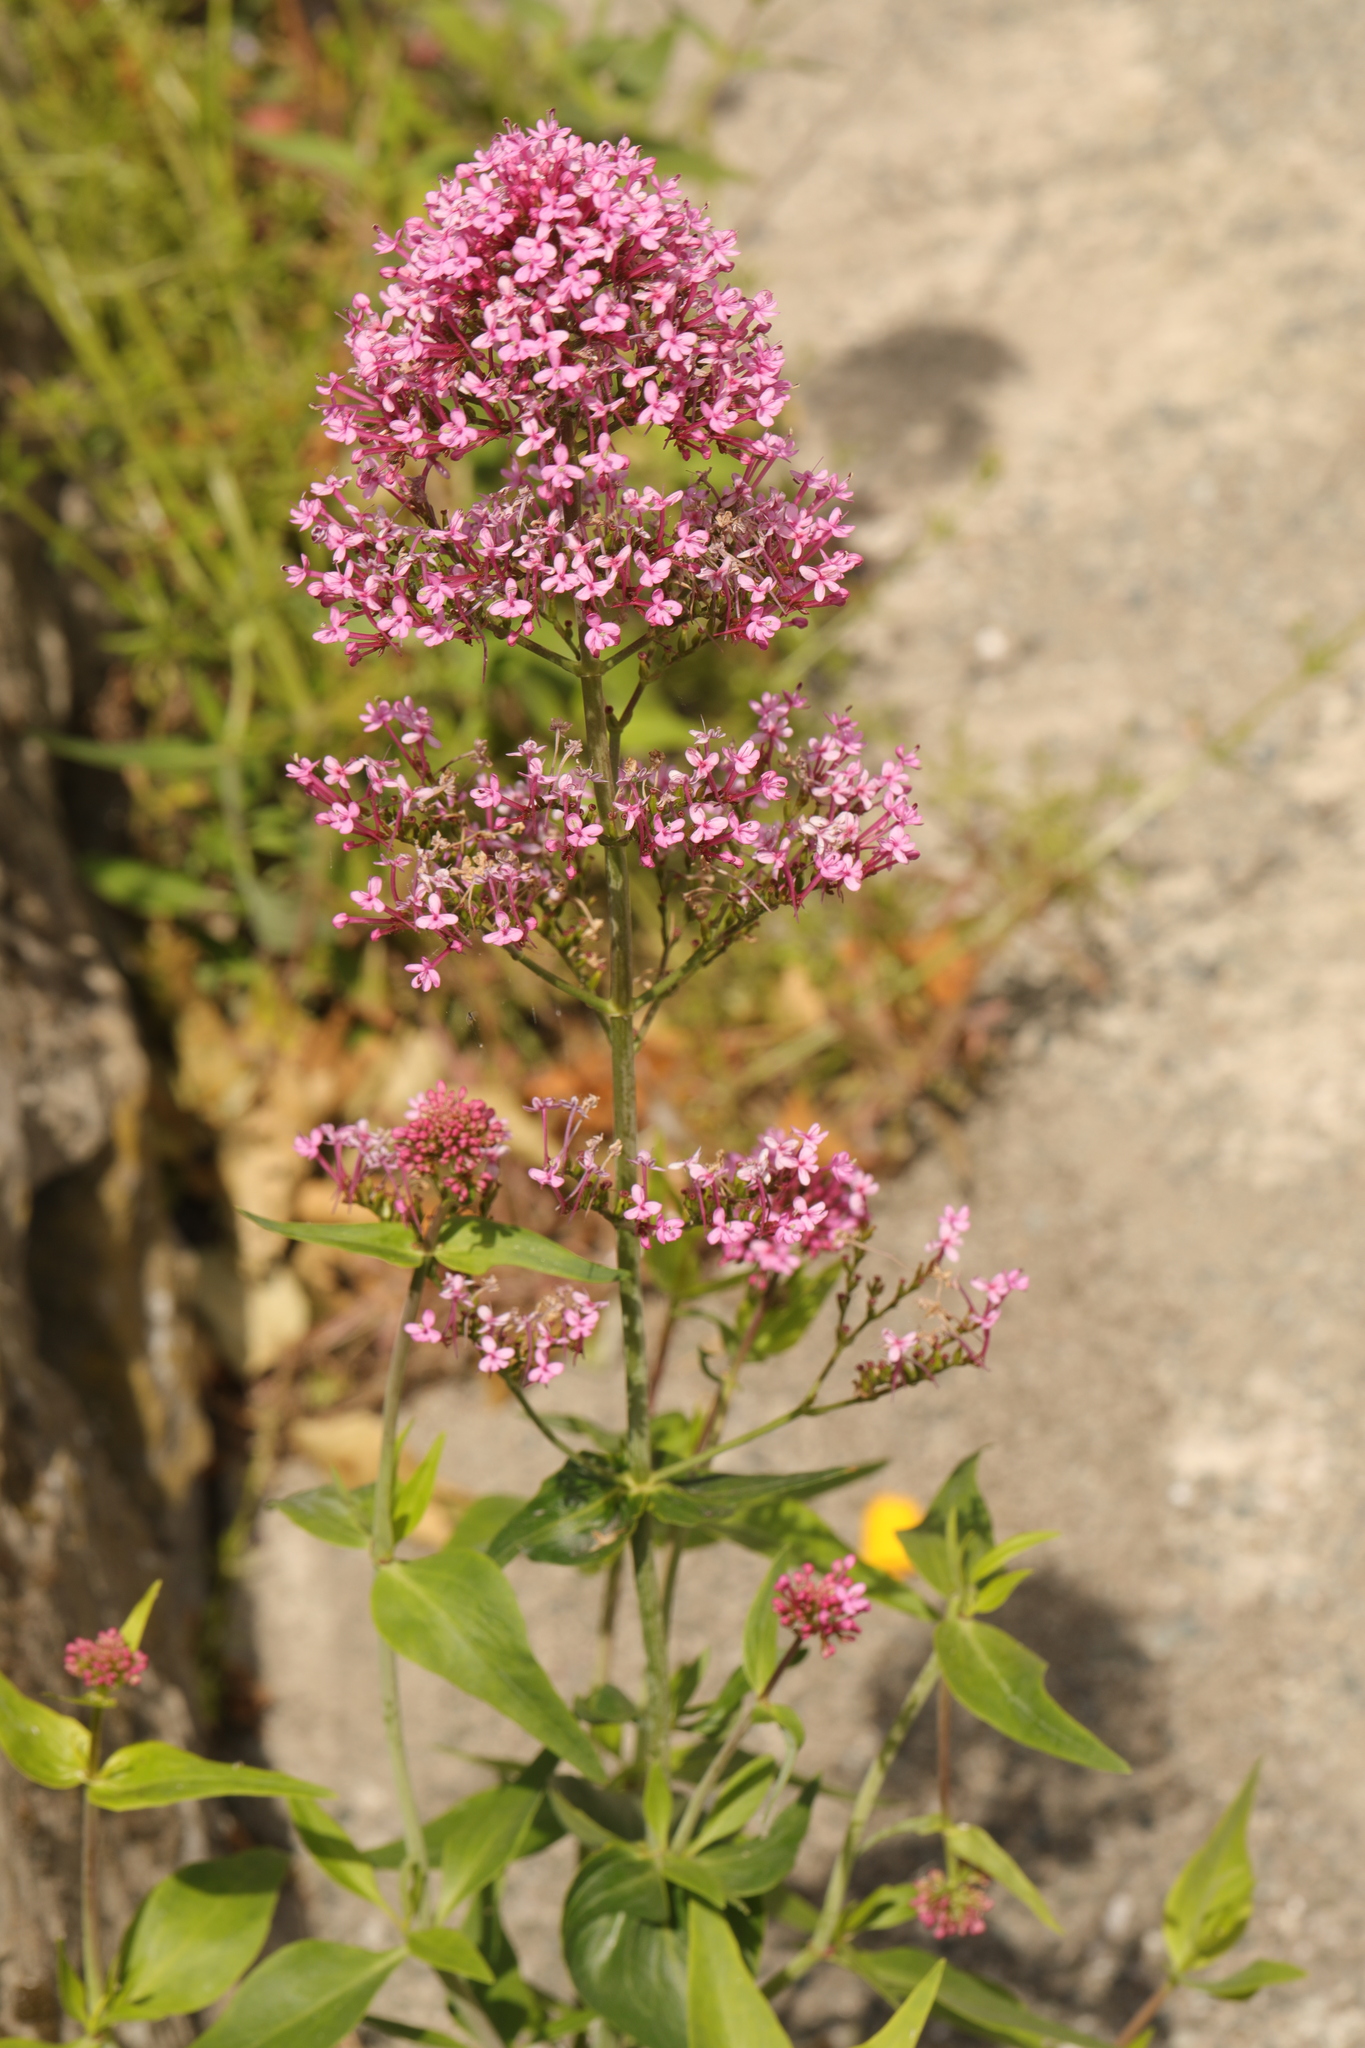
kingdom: Plantae
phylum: Tracheophyta
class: Magnoliopsida
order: Dipsacales
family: Caprifoliaceae
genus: Centranthus
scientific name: Centranthus ruber
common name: Red valerian
